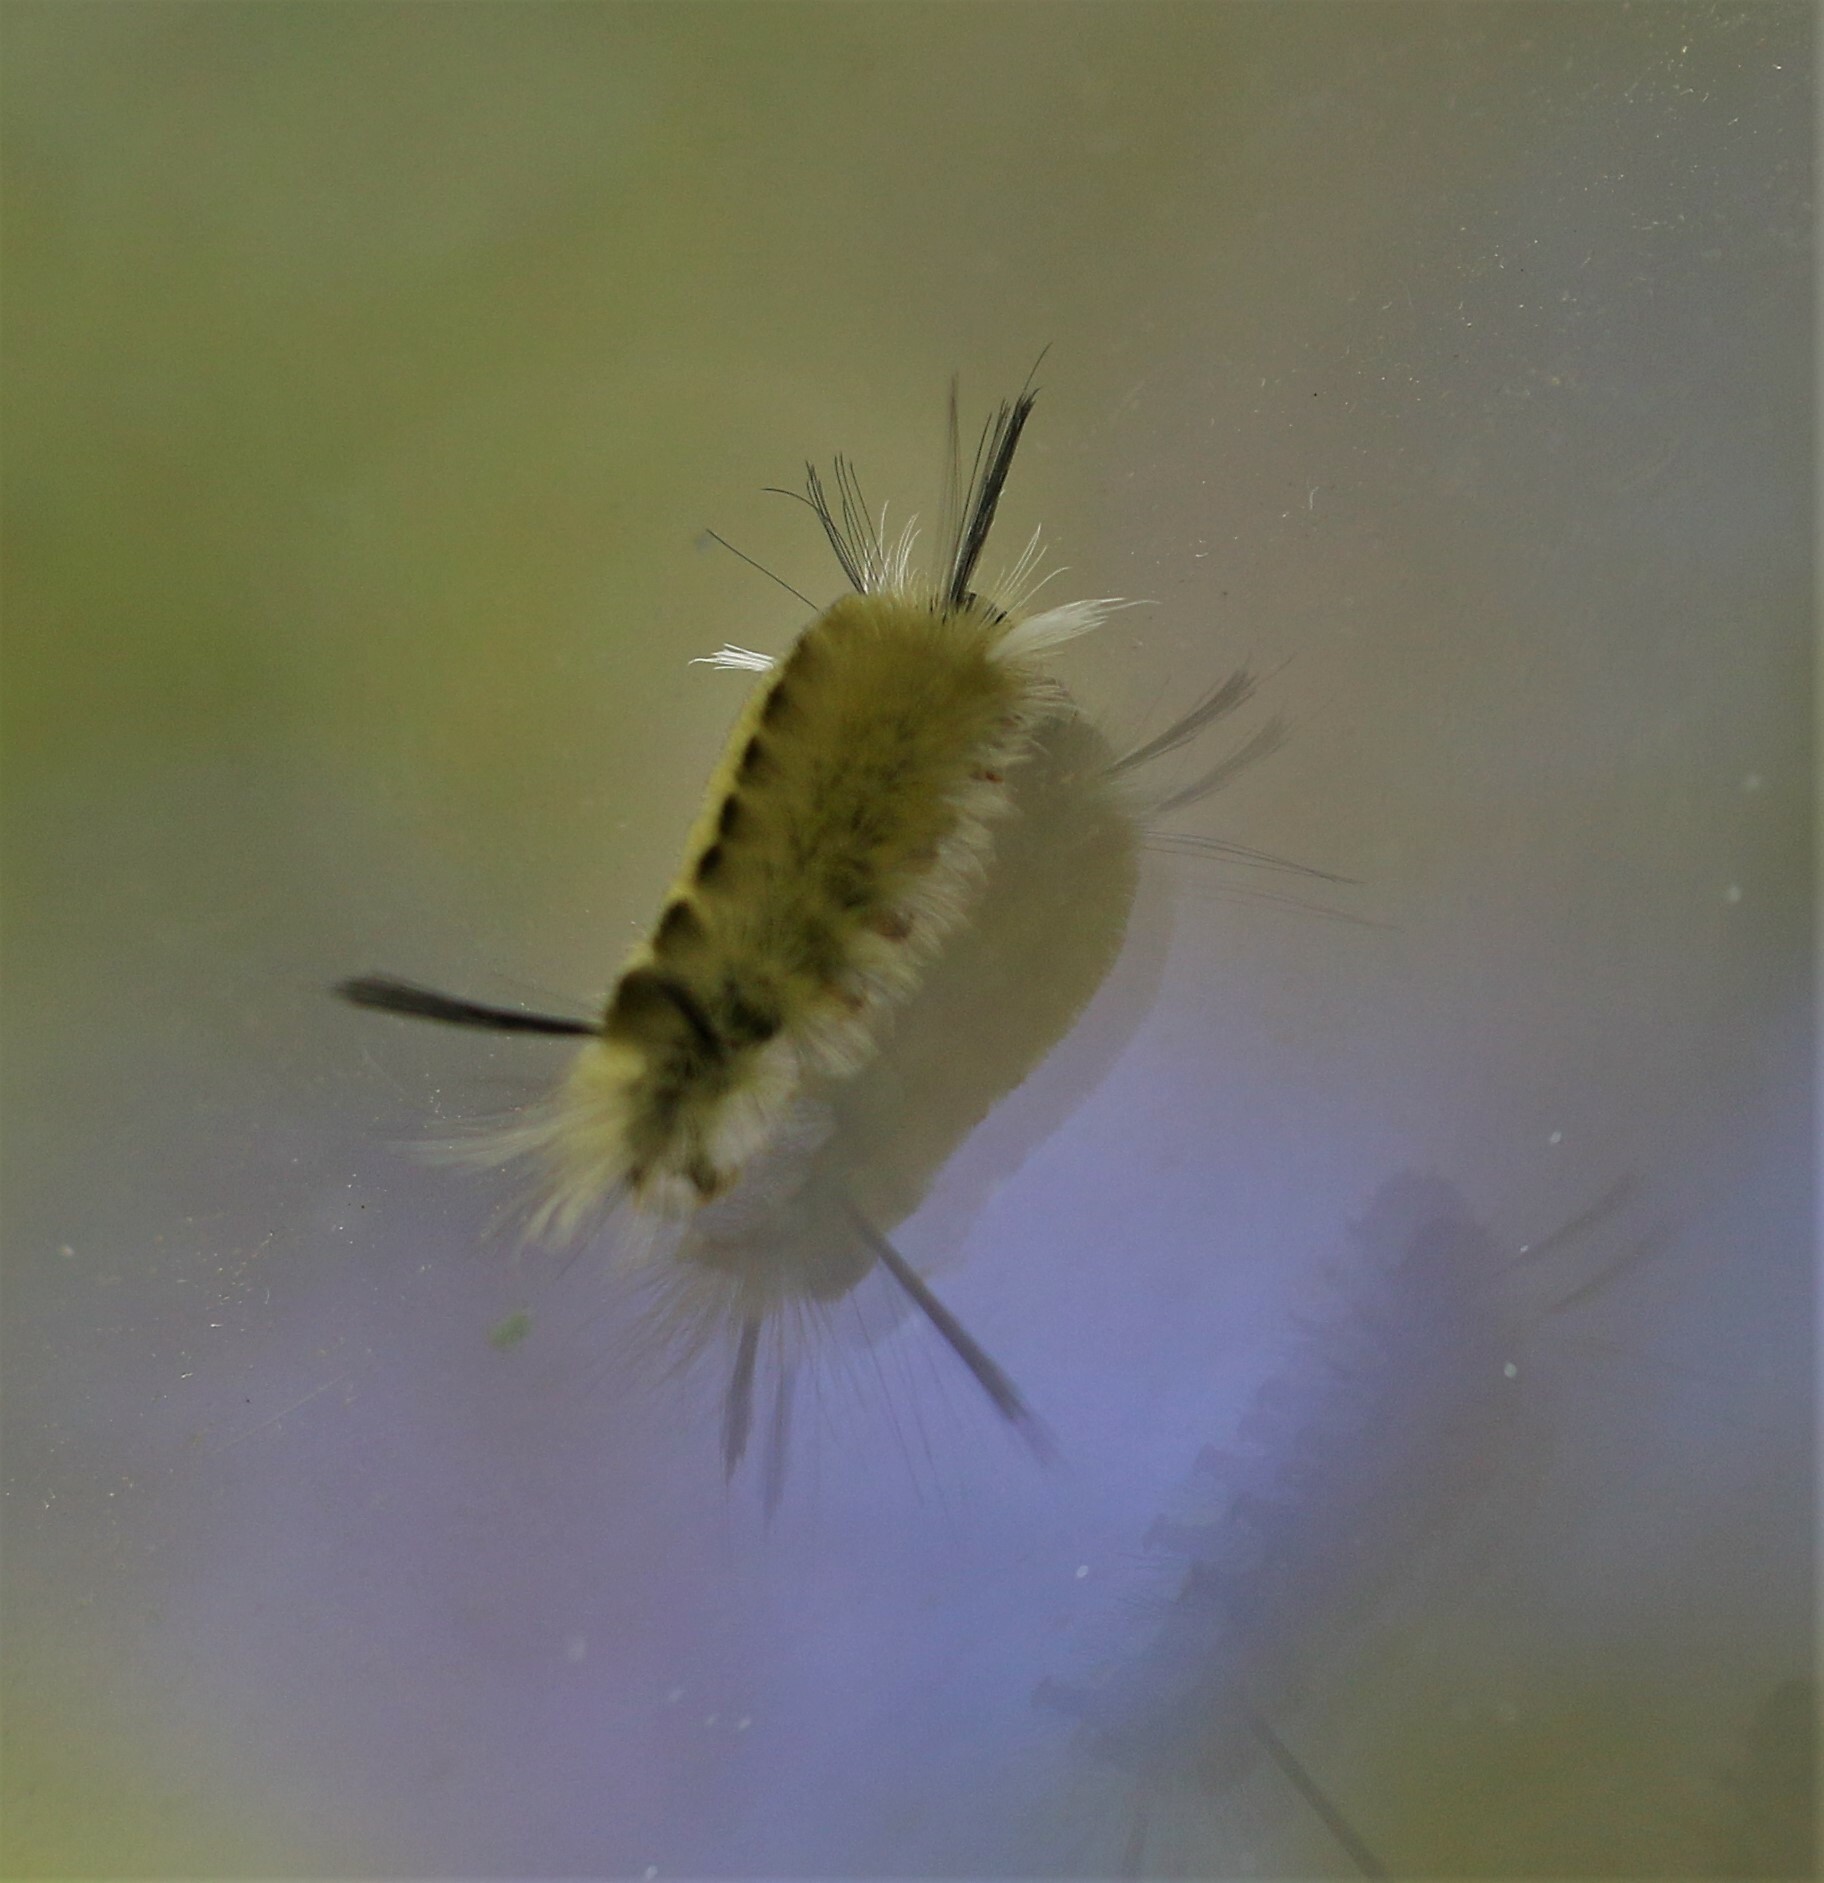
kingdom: Animalia
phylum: Arthropoda
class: Insecta
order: Lepidoptera
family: Erebidae
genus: Halysidota
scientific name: Halysidota tessellaris
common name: Banded tussock moth
